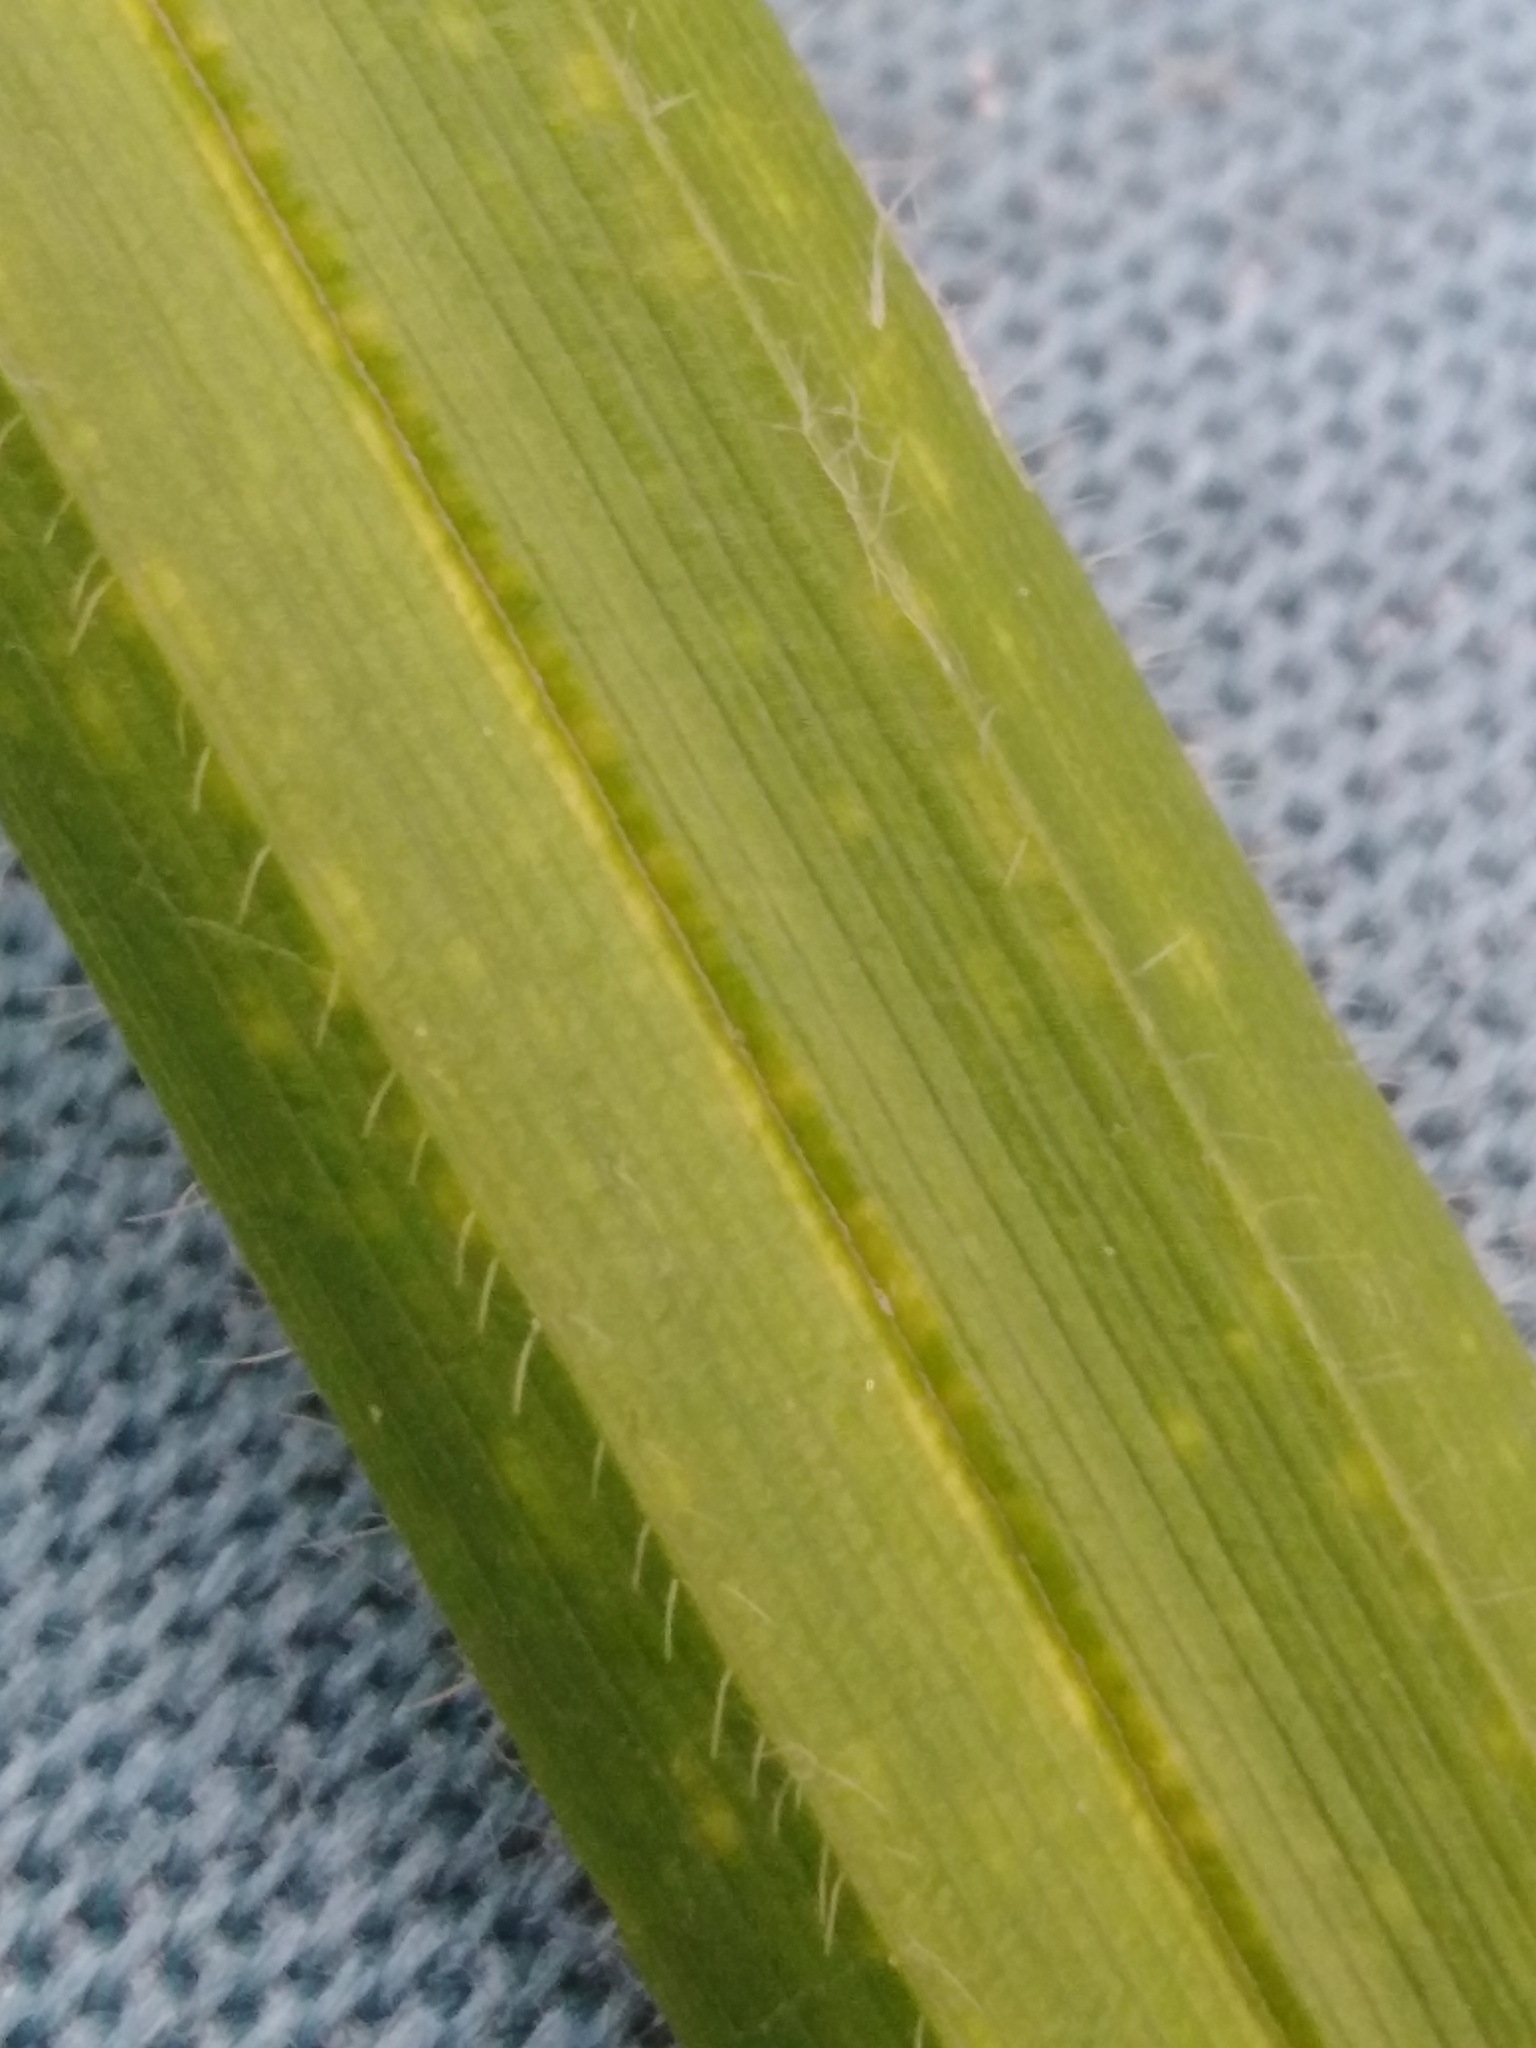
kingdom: Plantae
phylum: Tracheophyta
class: Liliopsida
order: Poales
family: Cyperaceae
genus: Carex
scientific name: Carex pilosa
